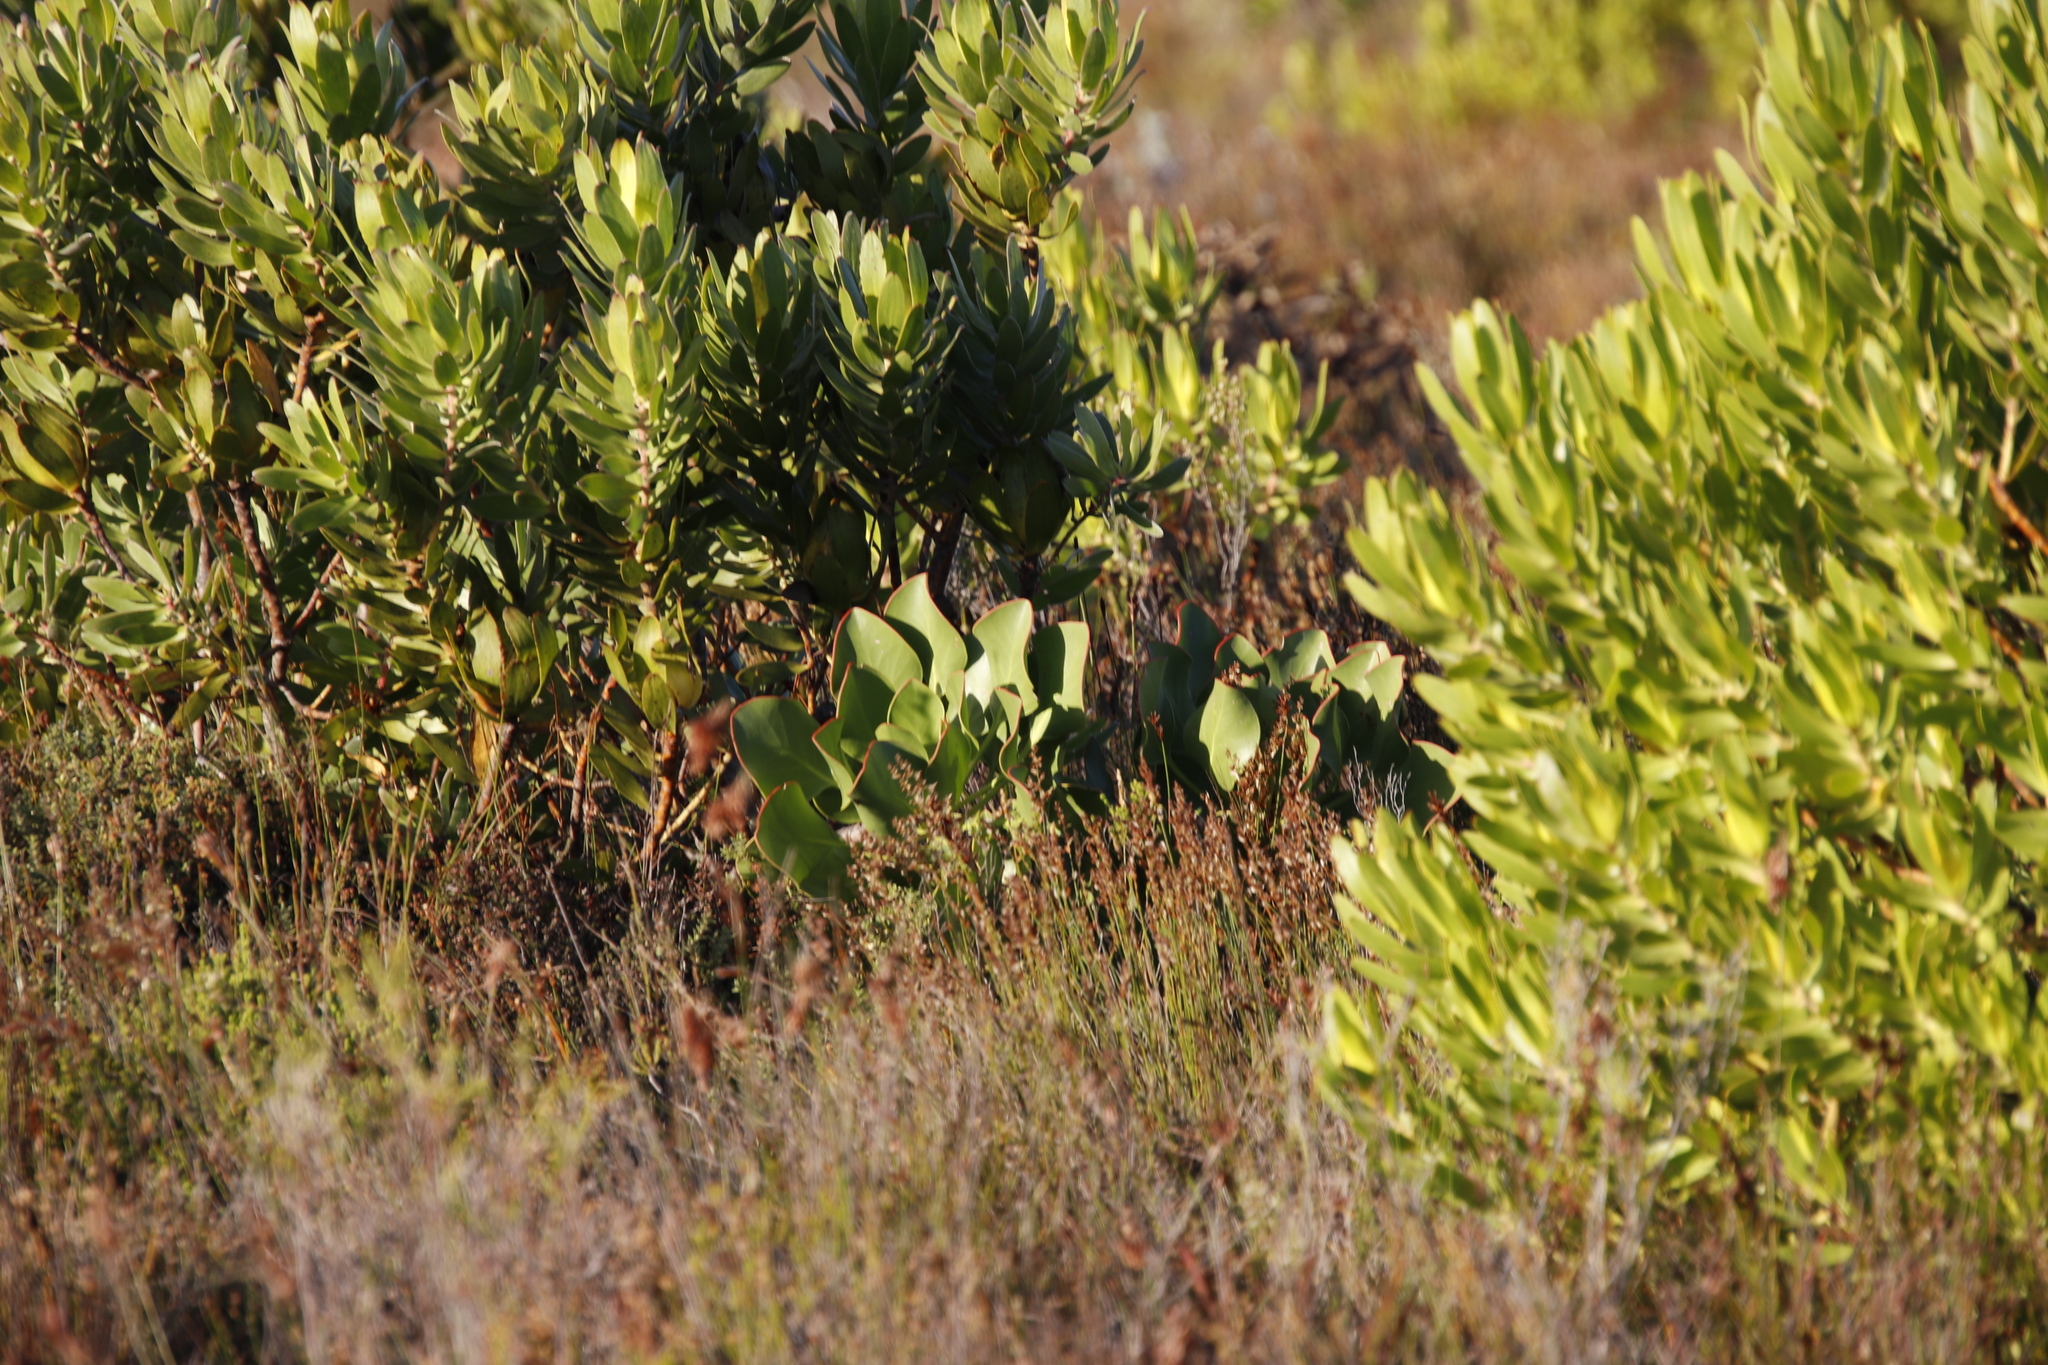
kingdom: Plantae
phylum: Tracheophyta
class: Magnoliopsida
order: Proteales
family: Proteaceae
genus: Protea
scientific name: Protea cynaroides
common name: King protea
